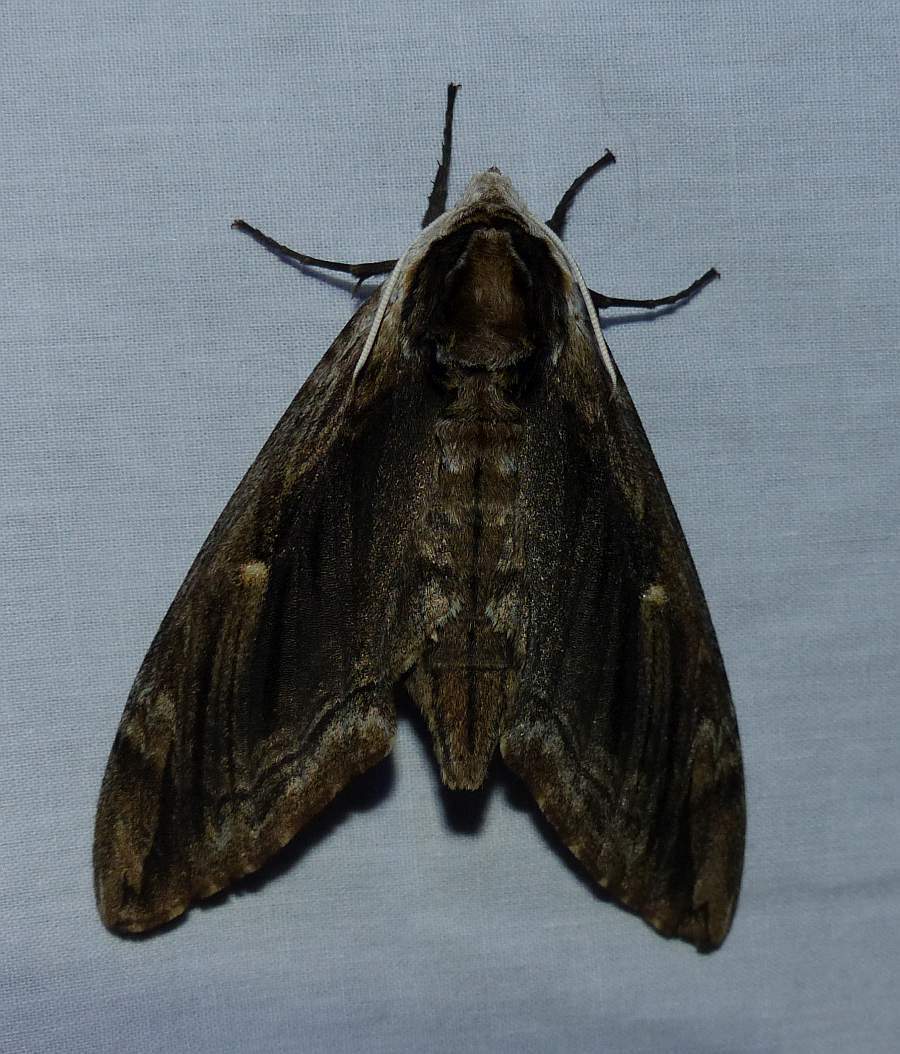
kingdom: Animalia
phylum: Arthropoda
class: Insecta
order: Lepidoptera
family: Sphingidae
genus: Ceratomia
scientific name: Ceratomia amyntor
